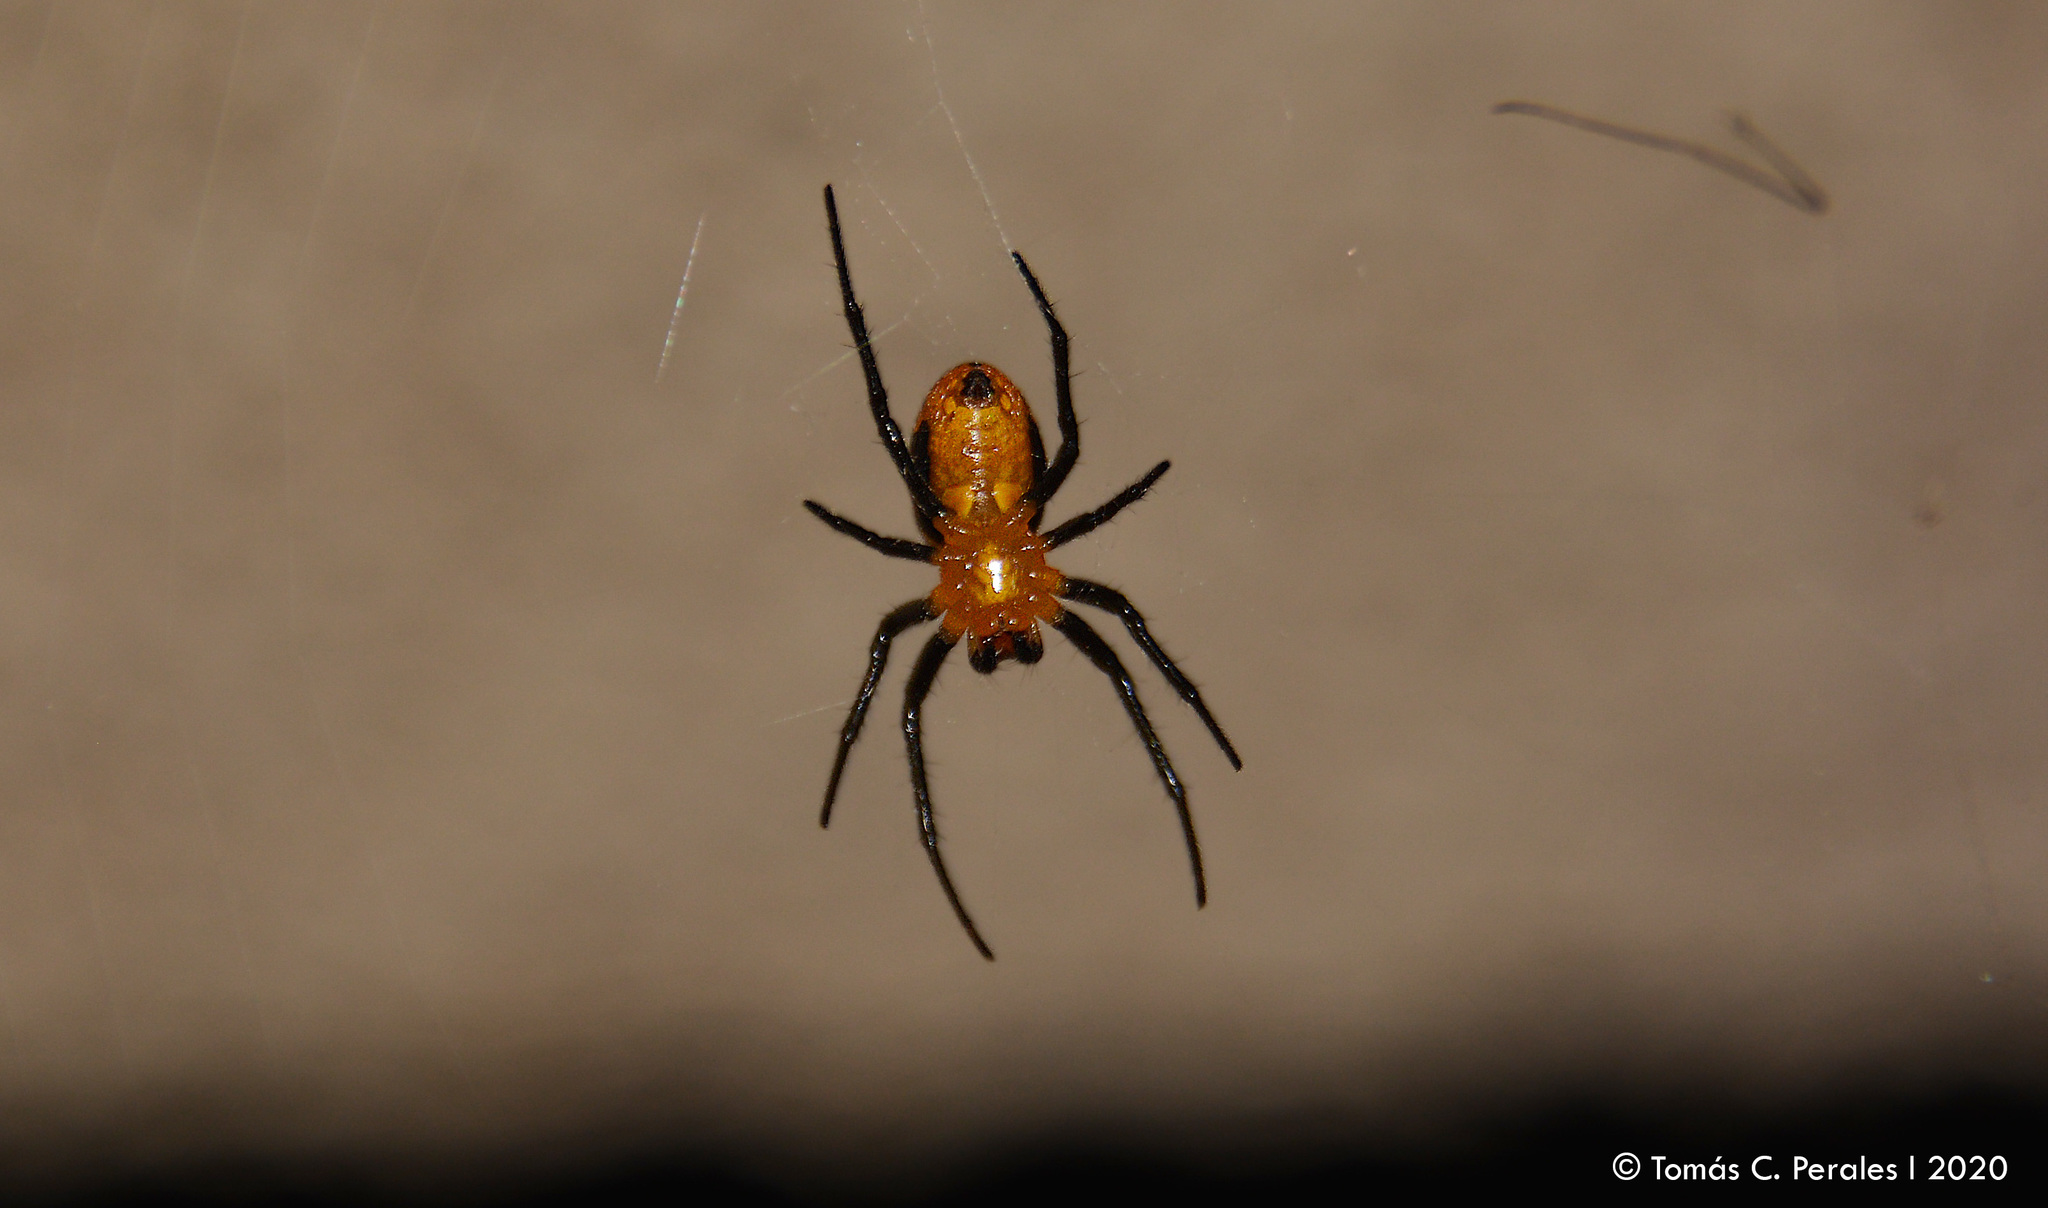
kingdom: Animalia
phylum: Arthropoda
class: Arachnida
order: Araneae
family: Araneidae
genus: Alpaida
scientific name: Alpaida latro
